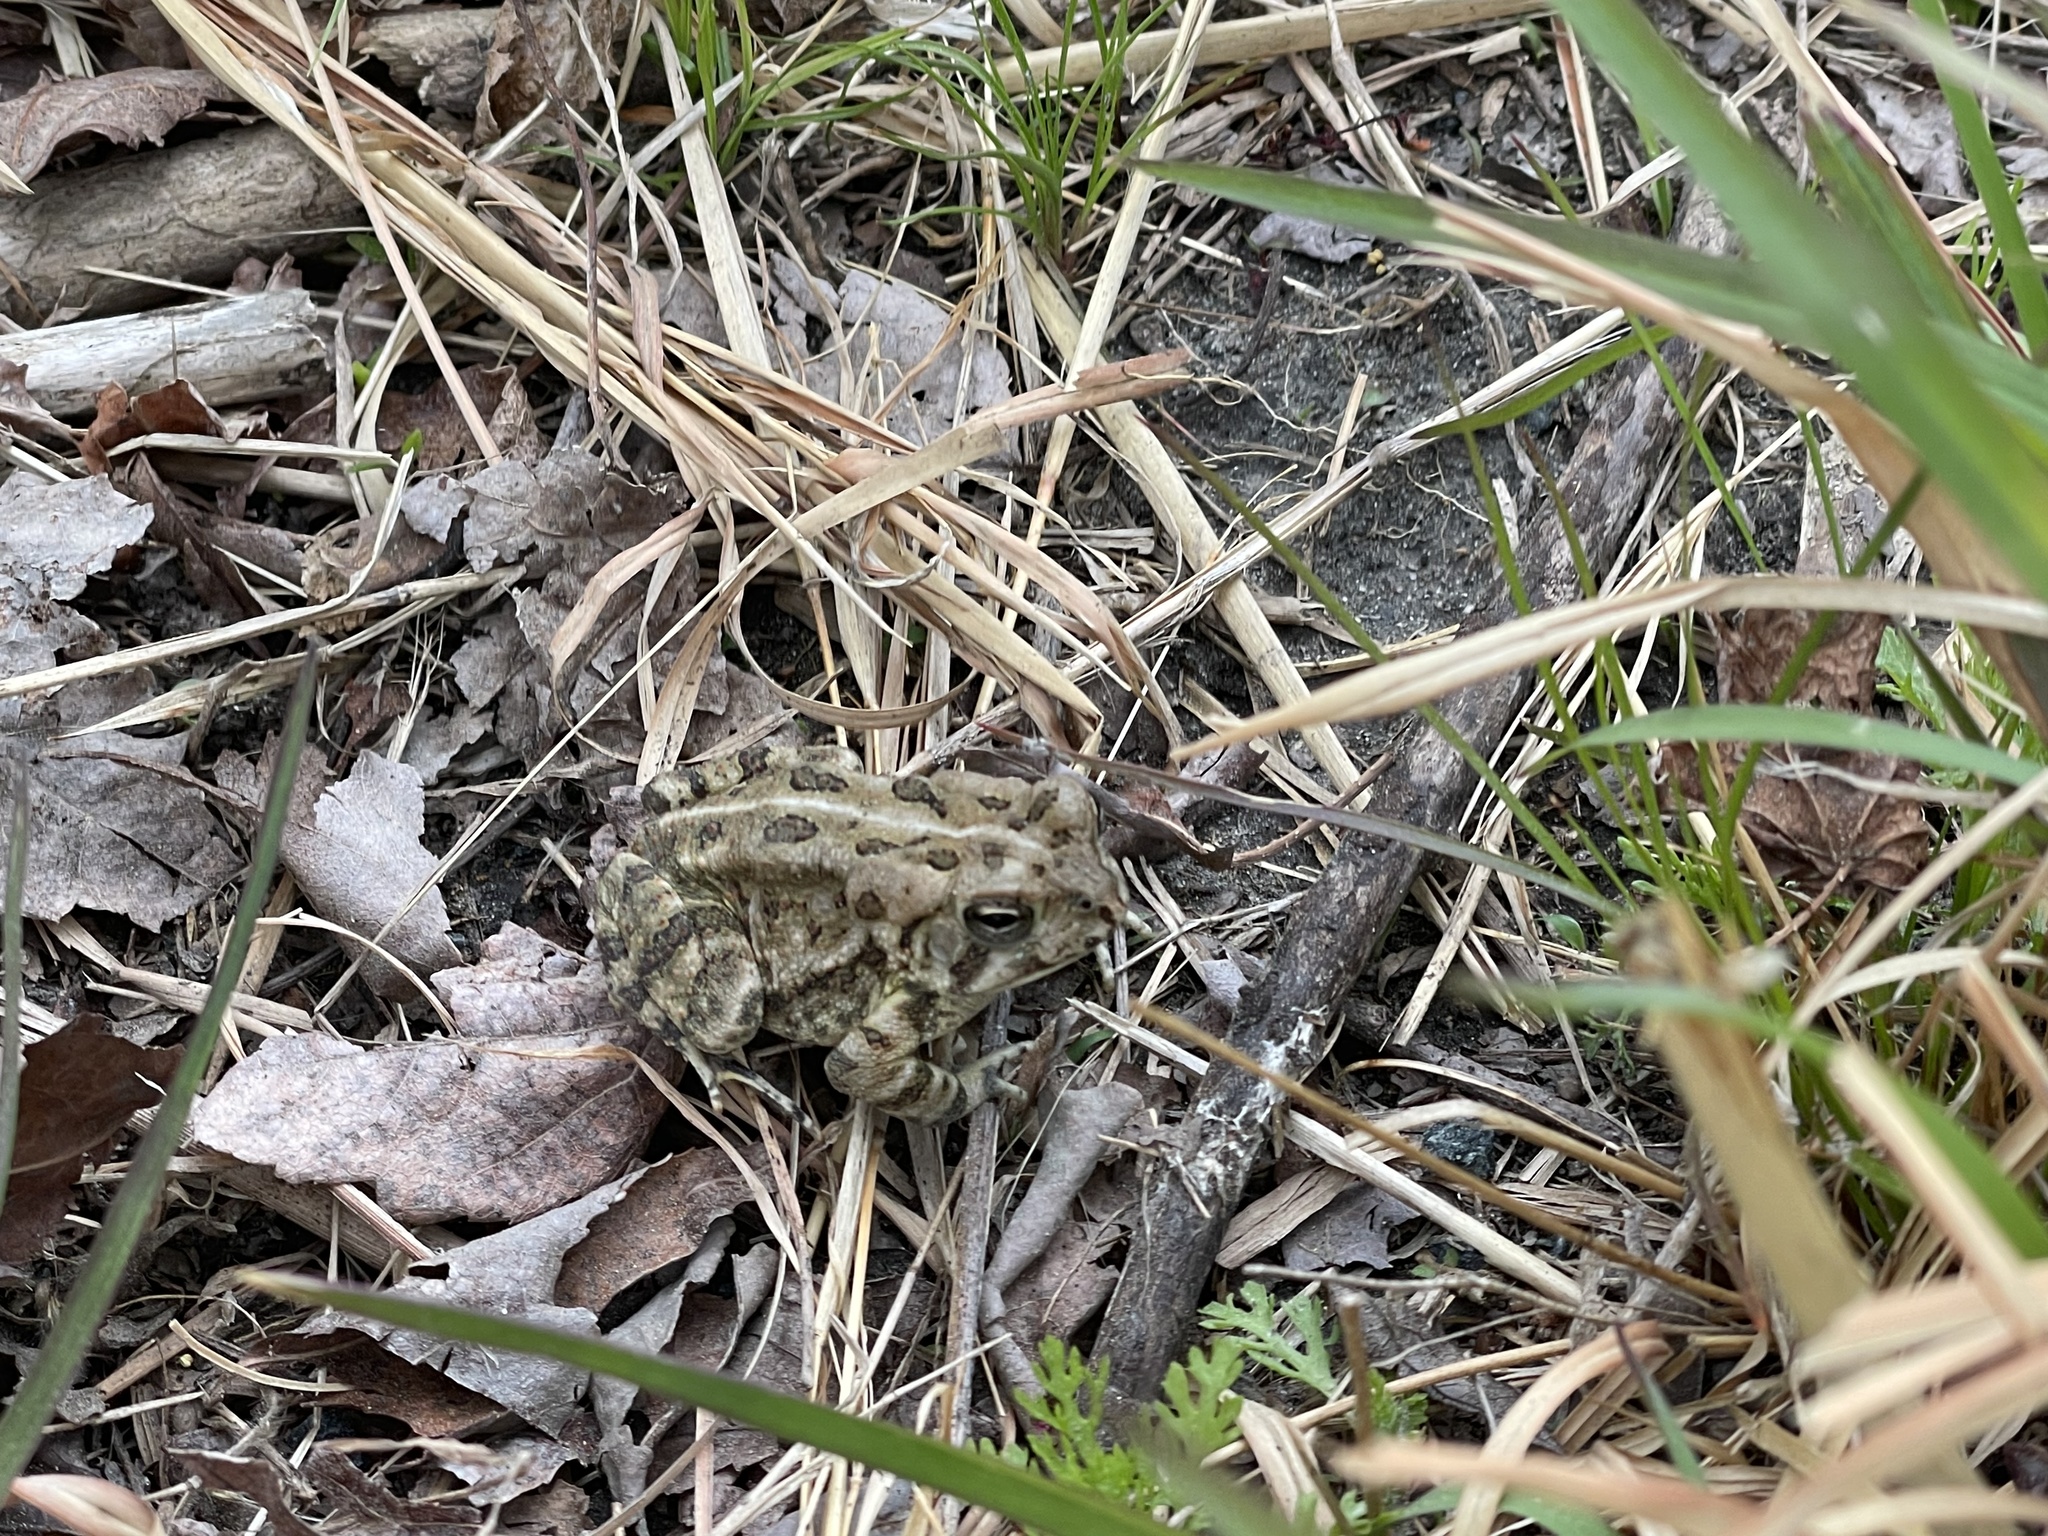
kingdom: Animalia
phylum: Chordata
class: Amphibia
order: Anura
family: Bufonidae
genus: Anaxyrus
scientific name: Anaxyrus fowleri
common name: Fowler's toad
